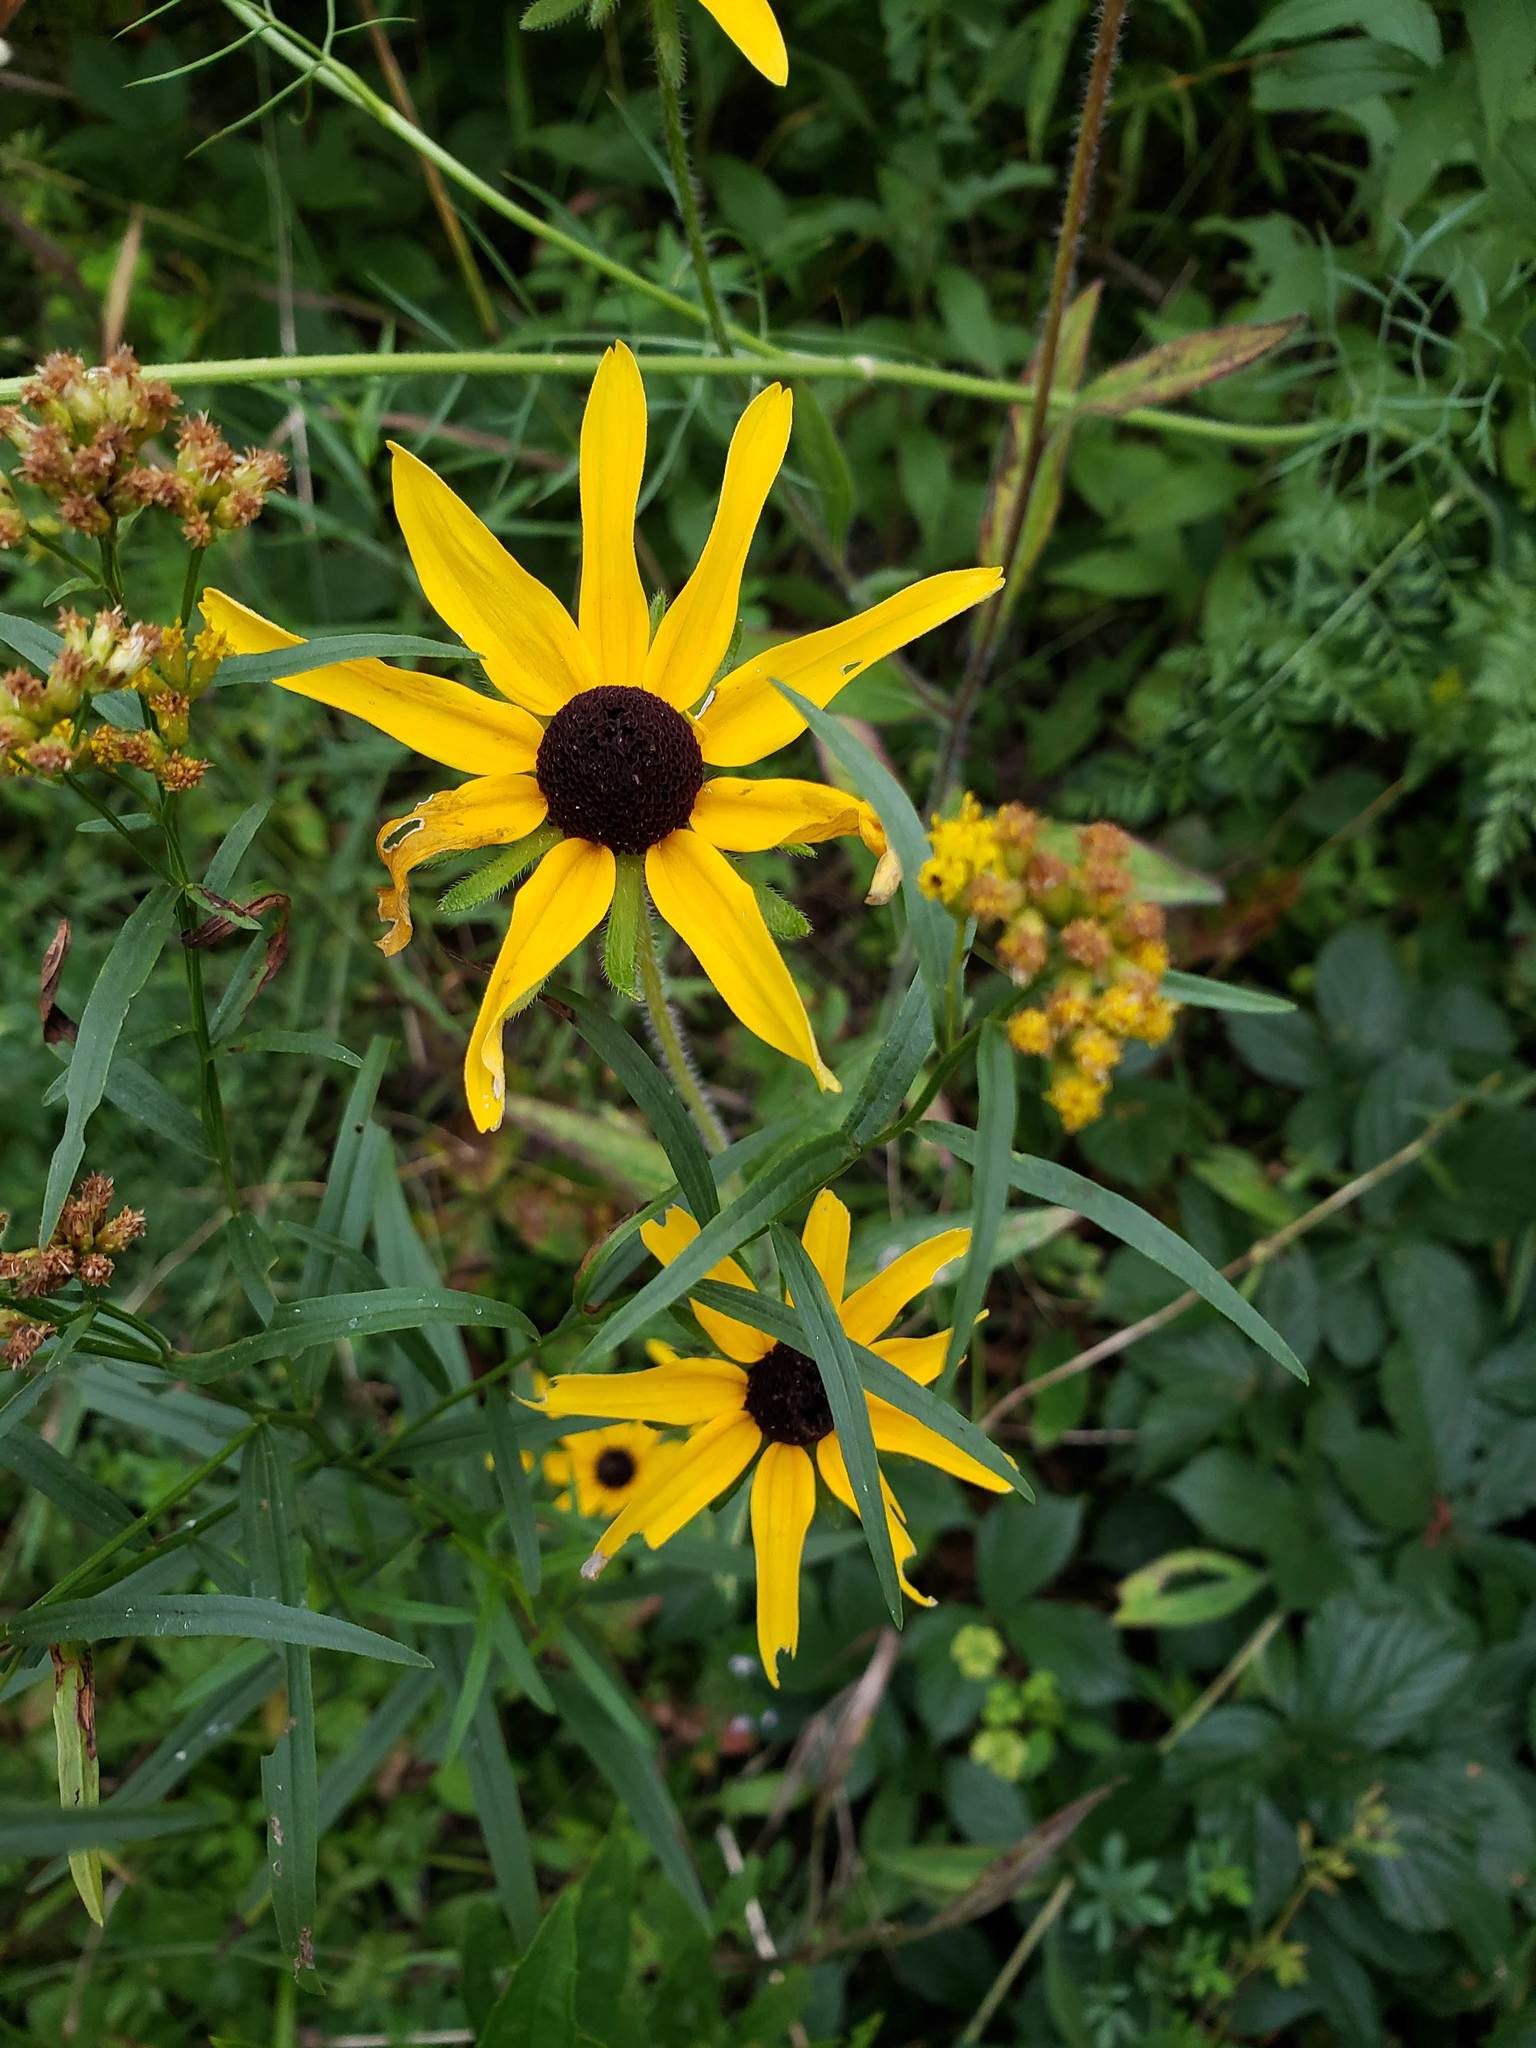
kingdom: Plantae
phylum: Tracheophyta
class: Magnoliopsida
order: Asterales
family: Asteraceae
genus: Rudbeckia
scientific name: Rudbeckia hirta
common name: Black-eyed-susan
